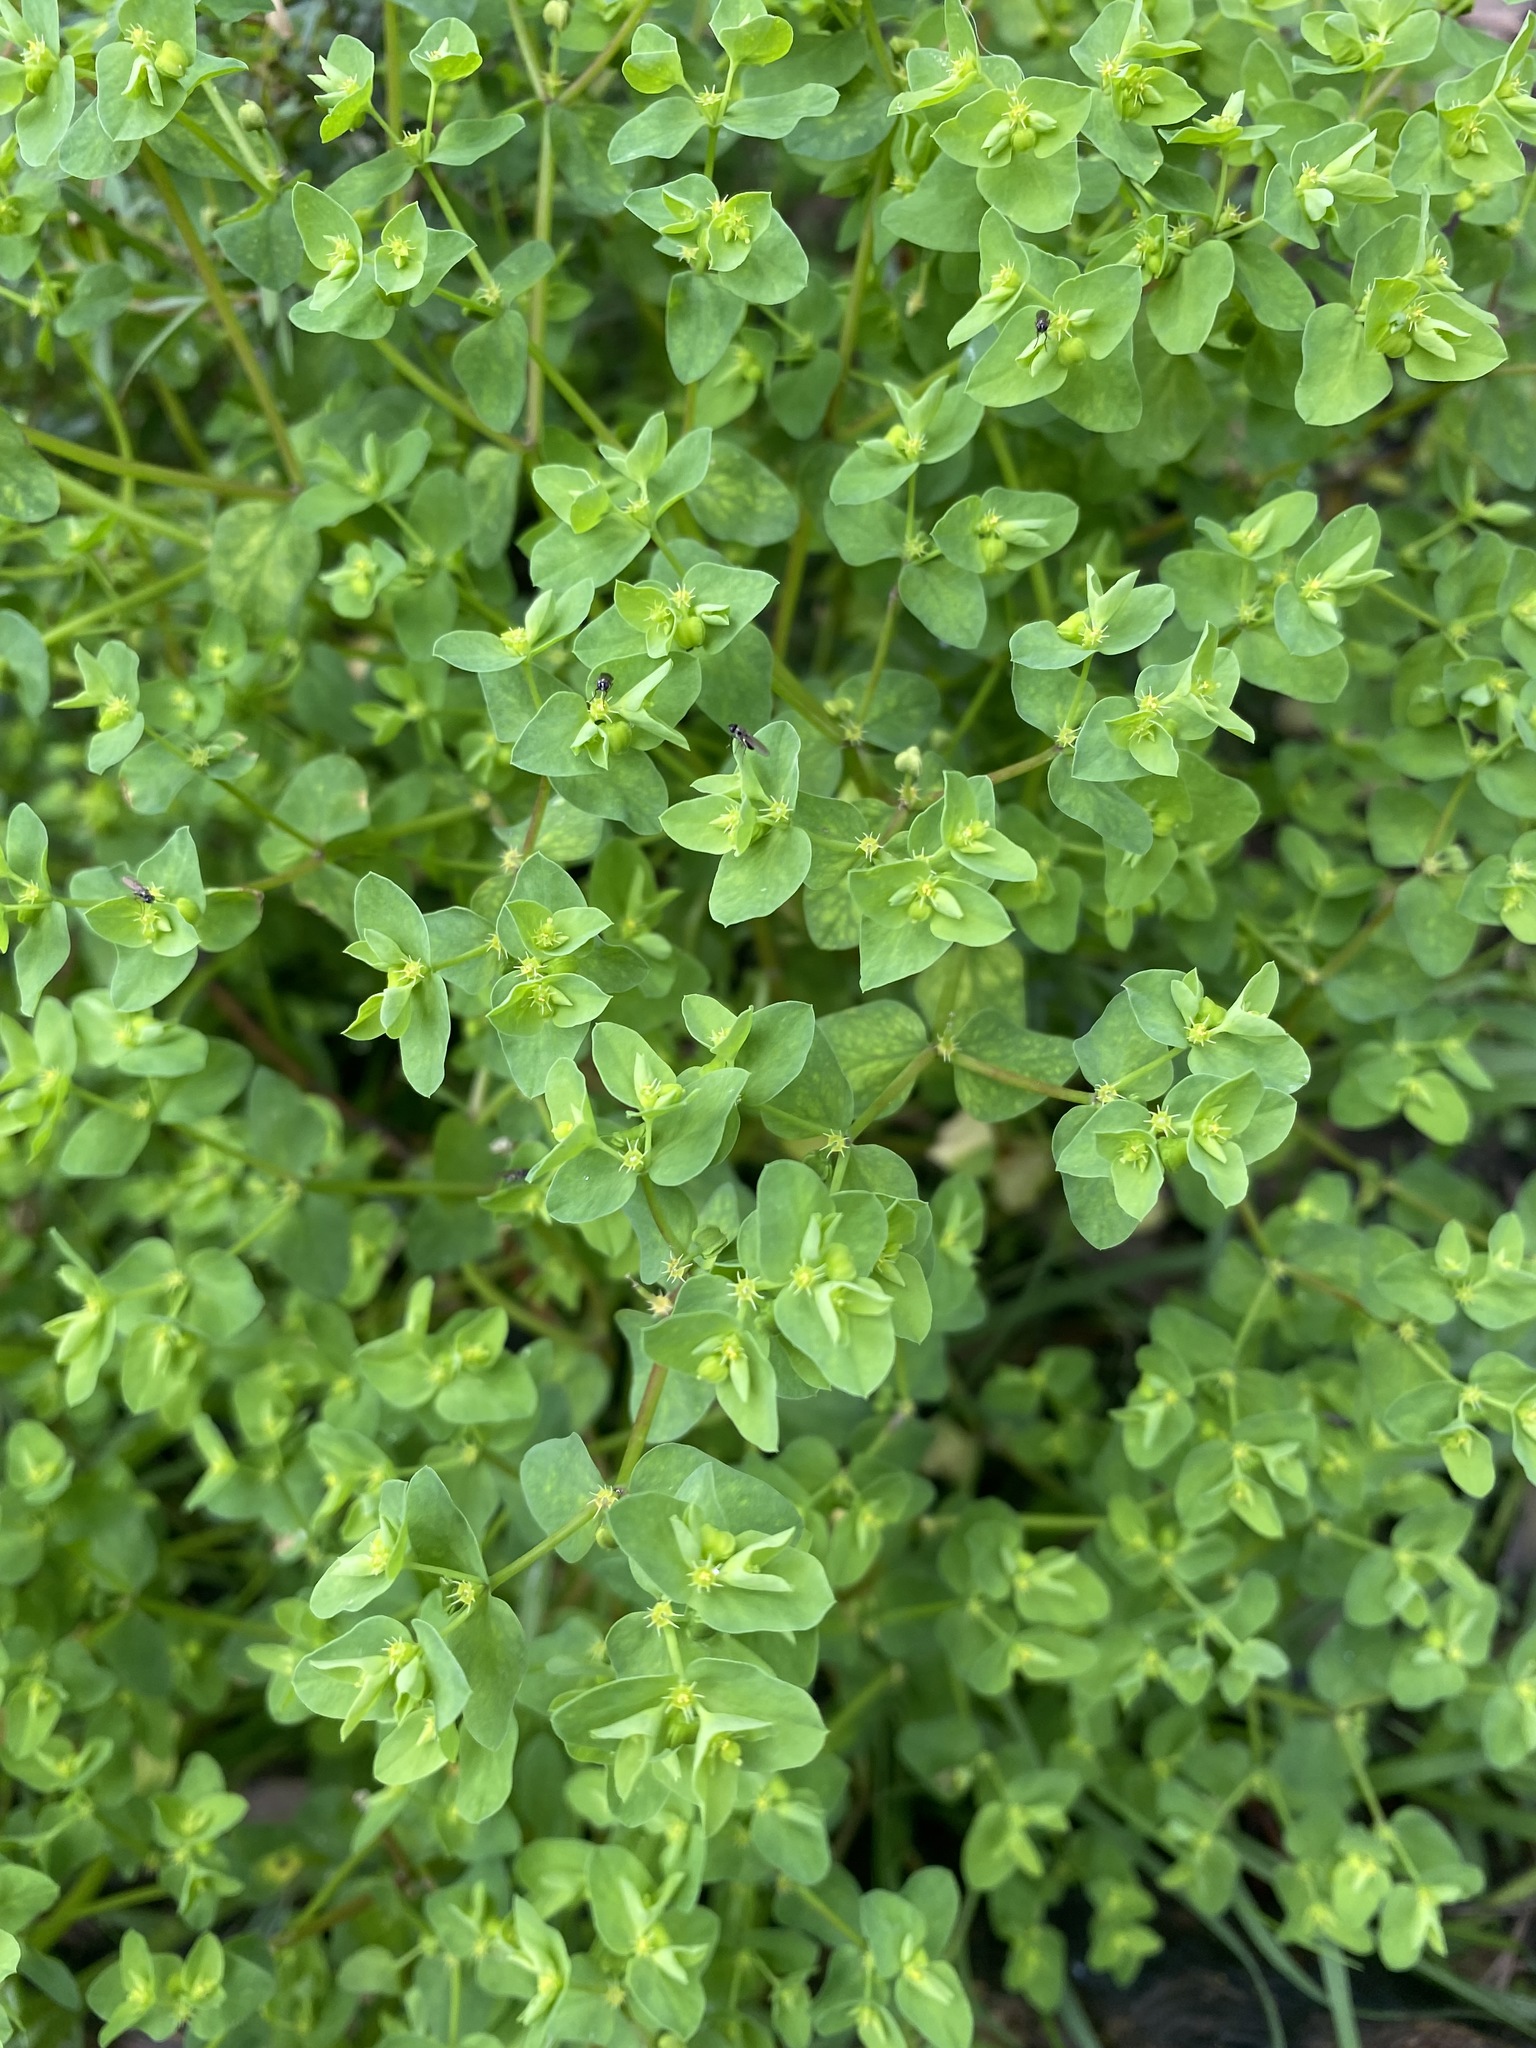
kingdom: Plantae
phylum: Tracheophyta
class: Magnoliopsida
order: Malpighiales
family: Euphorbiaceae
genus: Euphorbia
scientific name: Euphorbia peplus
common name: Petty spurge
